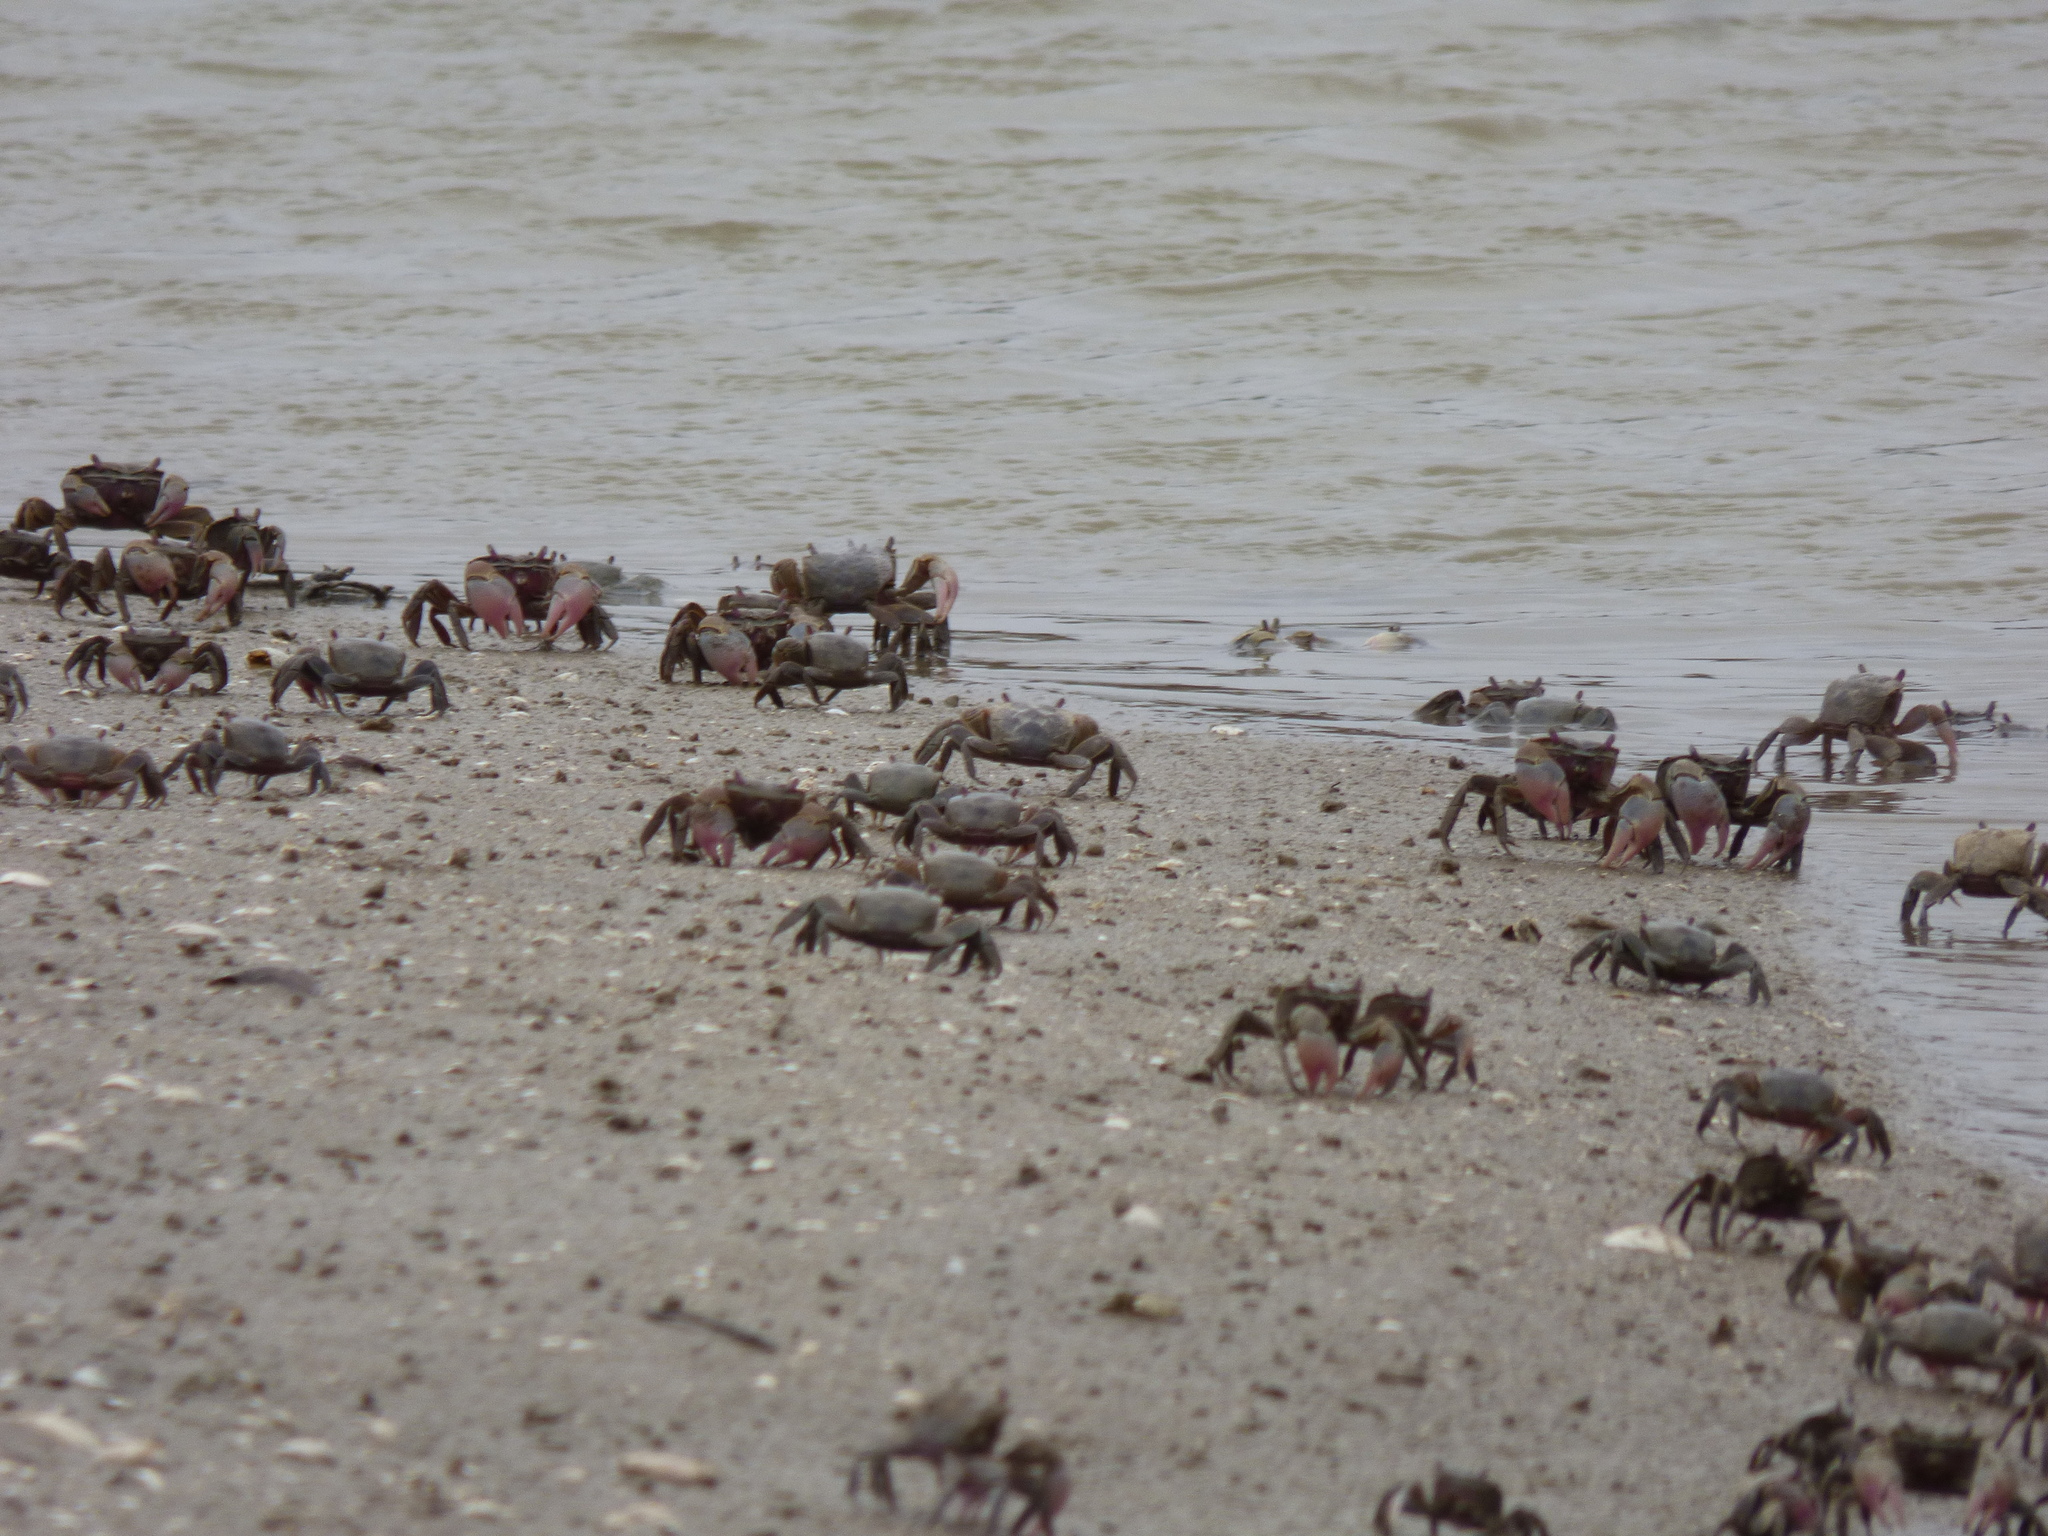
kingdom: Animalia
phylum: Arthropoda
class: Malacostraca
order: Decapoda
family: Varunidae
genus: Neohelice
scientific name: Neohelice granulata
